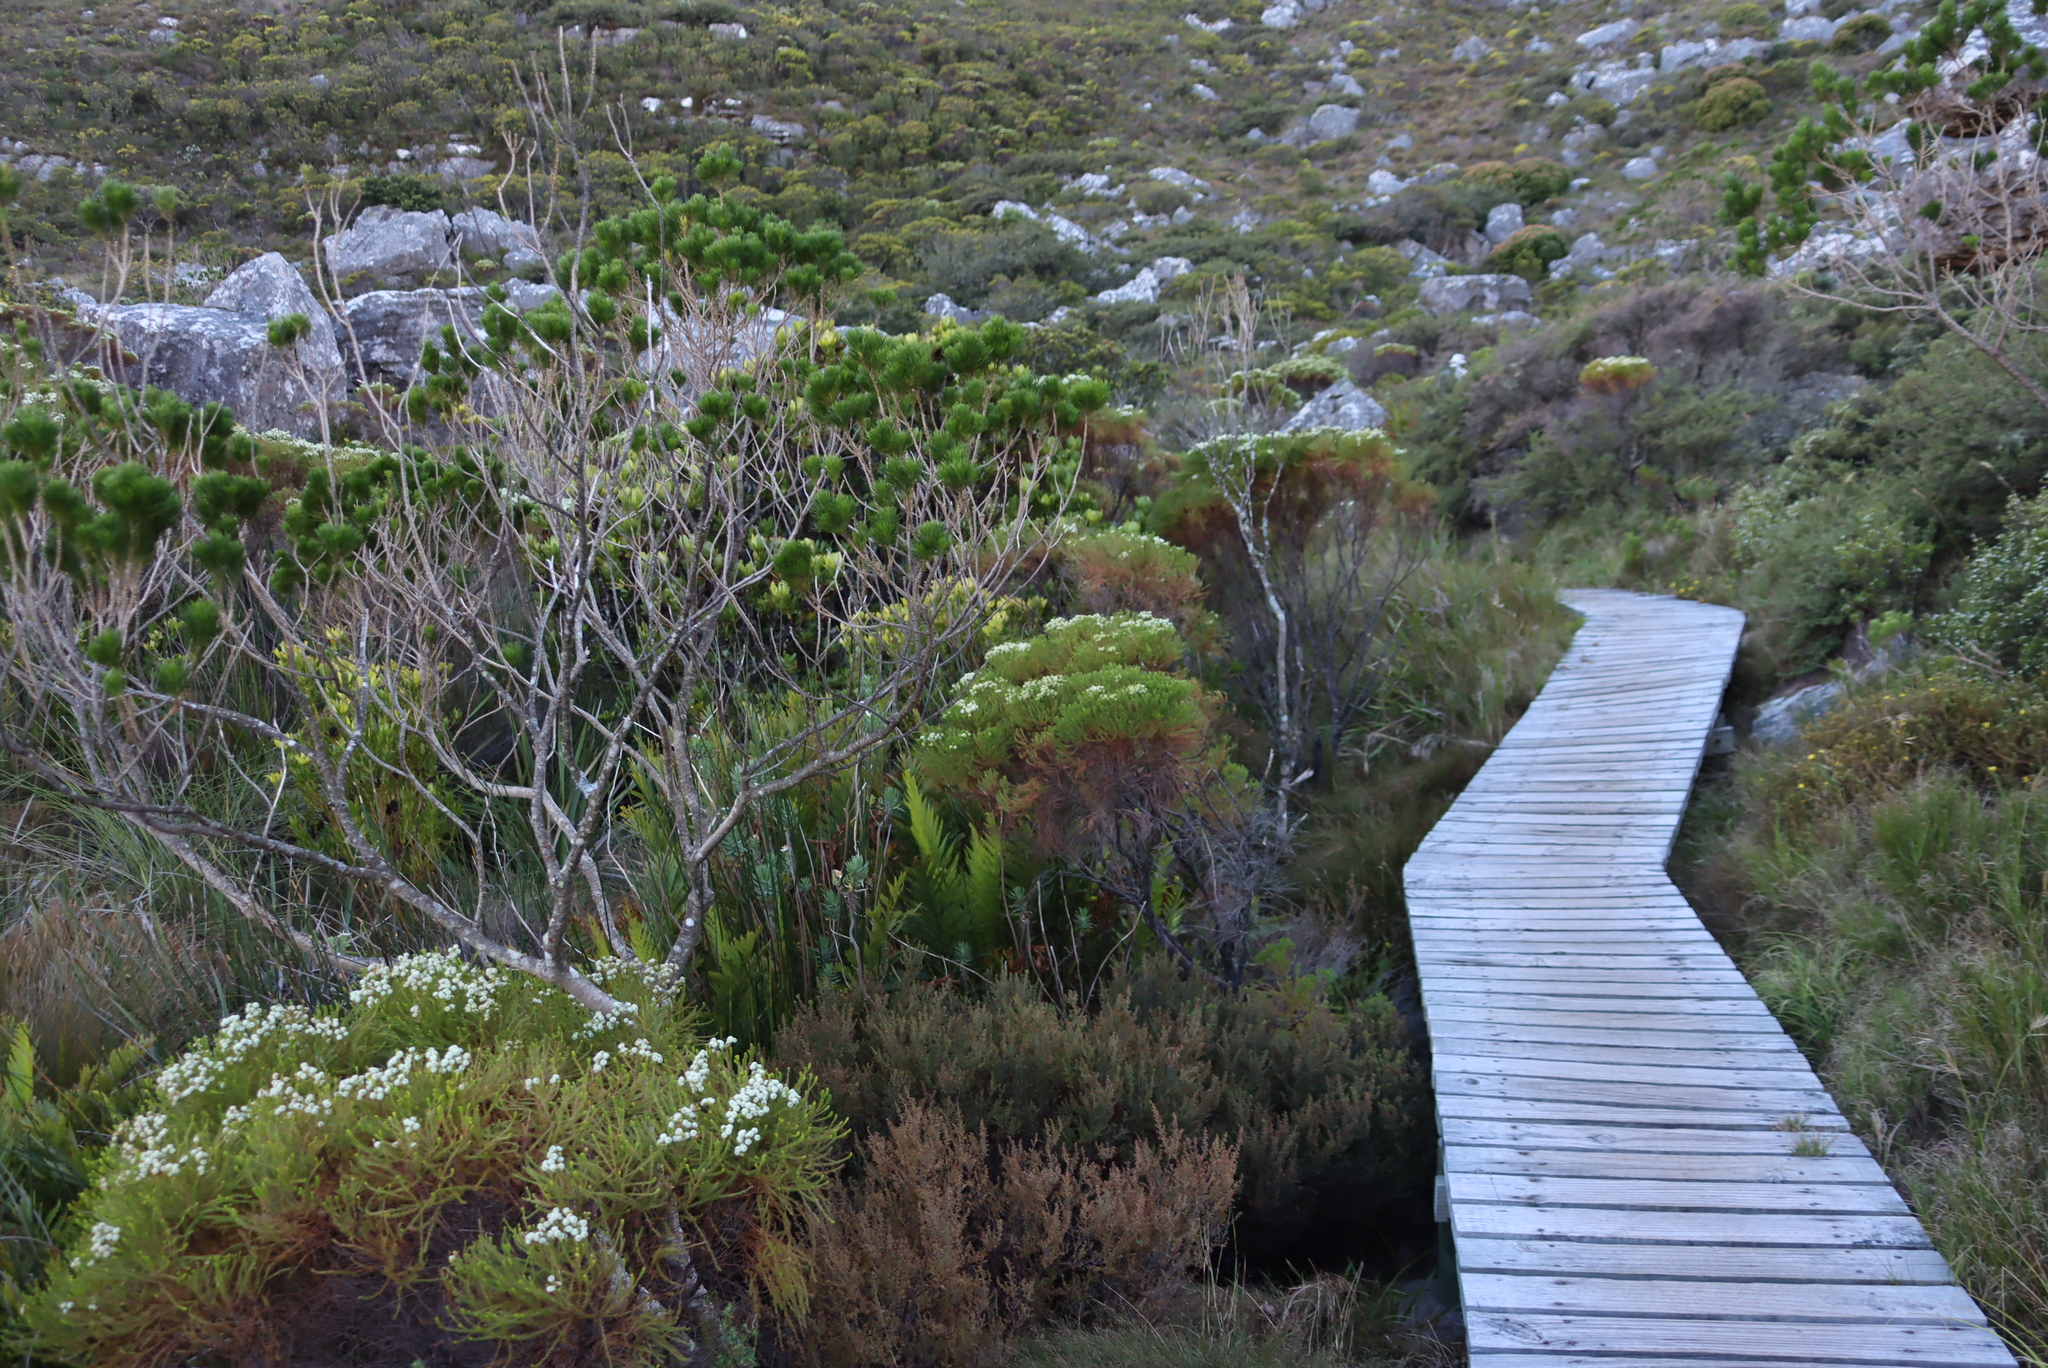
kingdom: Plantae
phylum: Tracheophyta
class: Magnoliopsida
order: Fabales
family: Fabaceae
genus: Psoralea
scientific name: Psoralea pinnata
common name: African scurfpea
